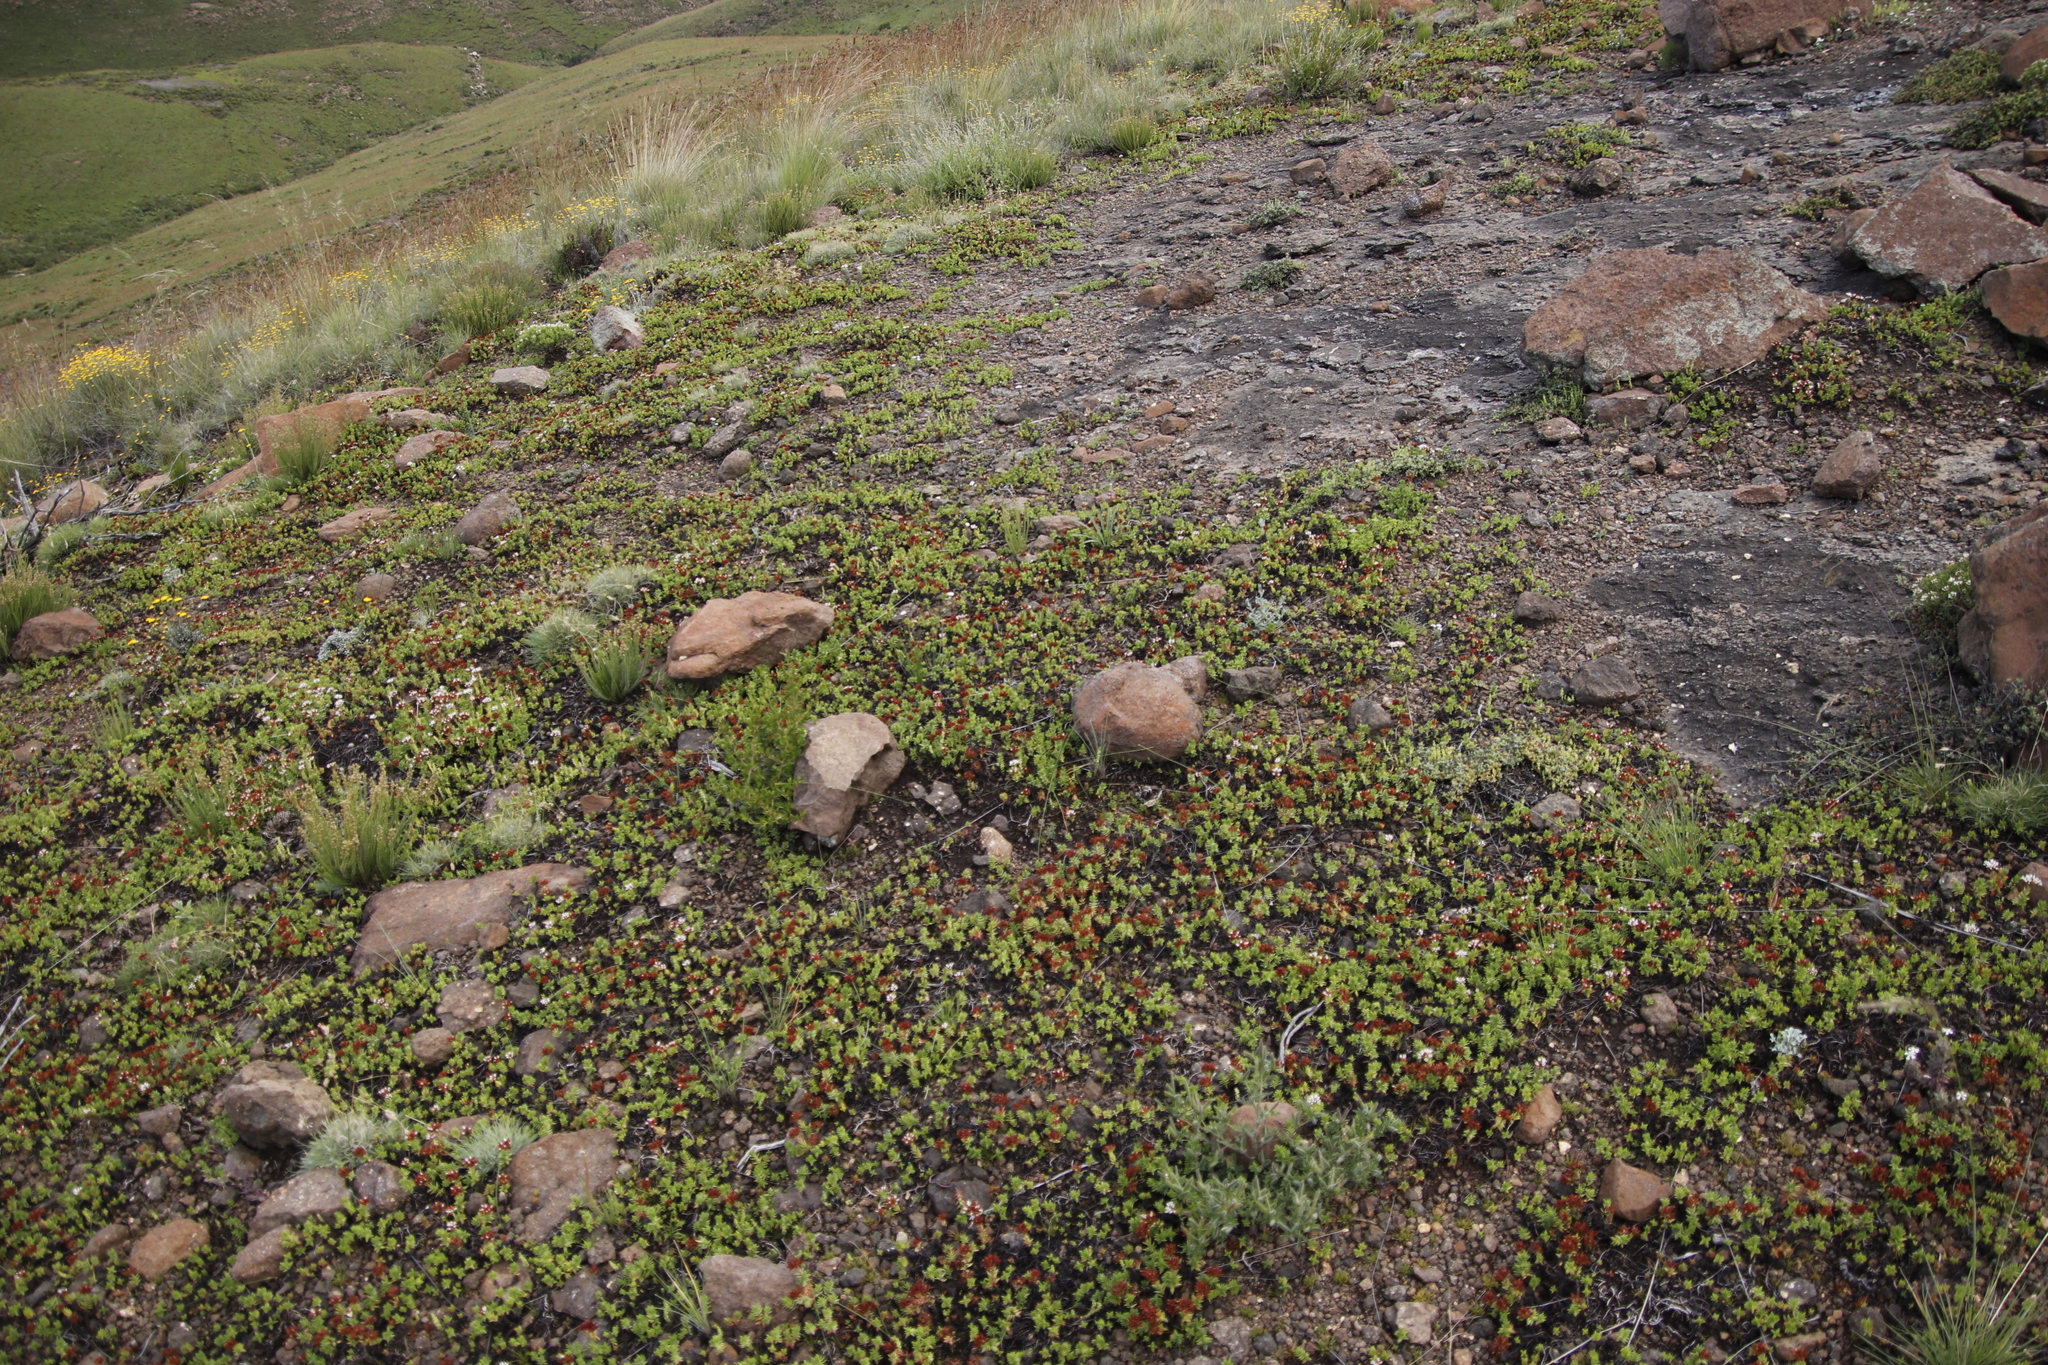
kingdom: Plantae
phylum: Tracheophyta
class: Magnoliopsida
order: Saxifragales
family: Crassulaceae
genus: Crassula
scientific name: Crassula dependens
